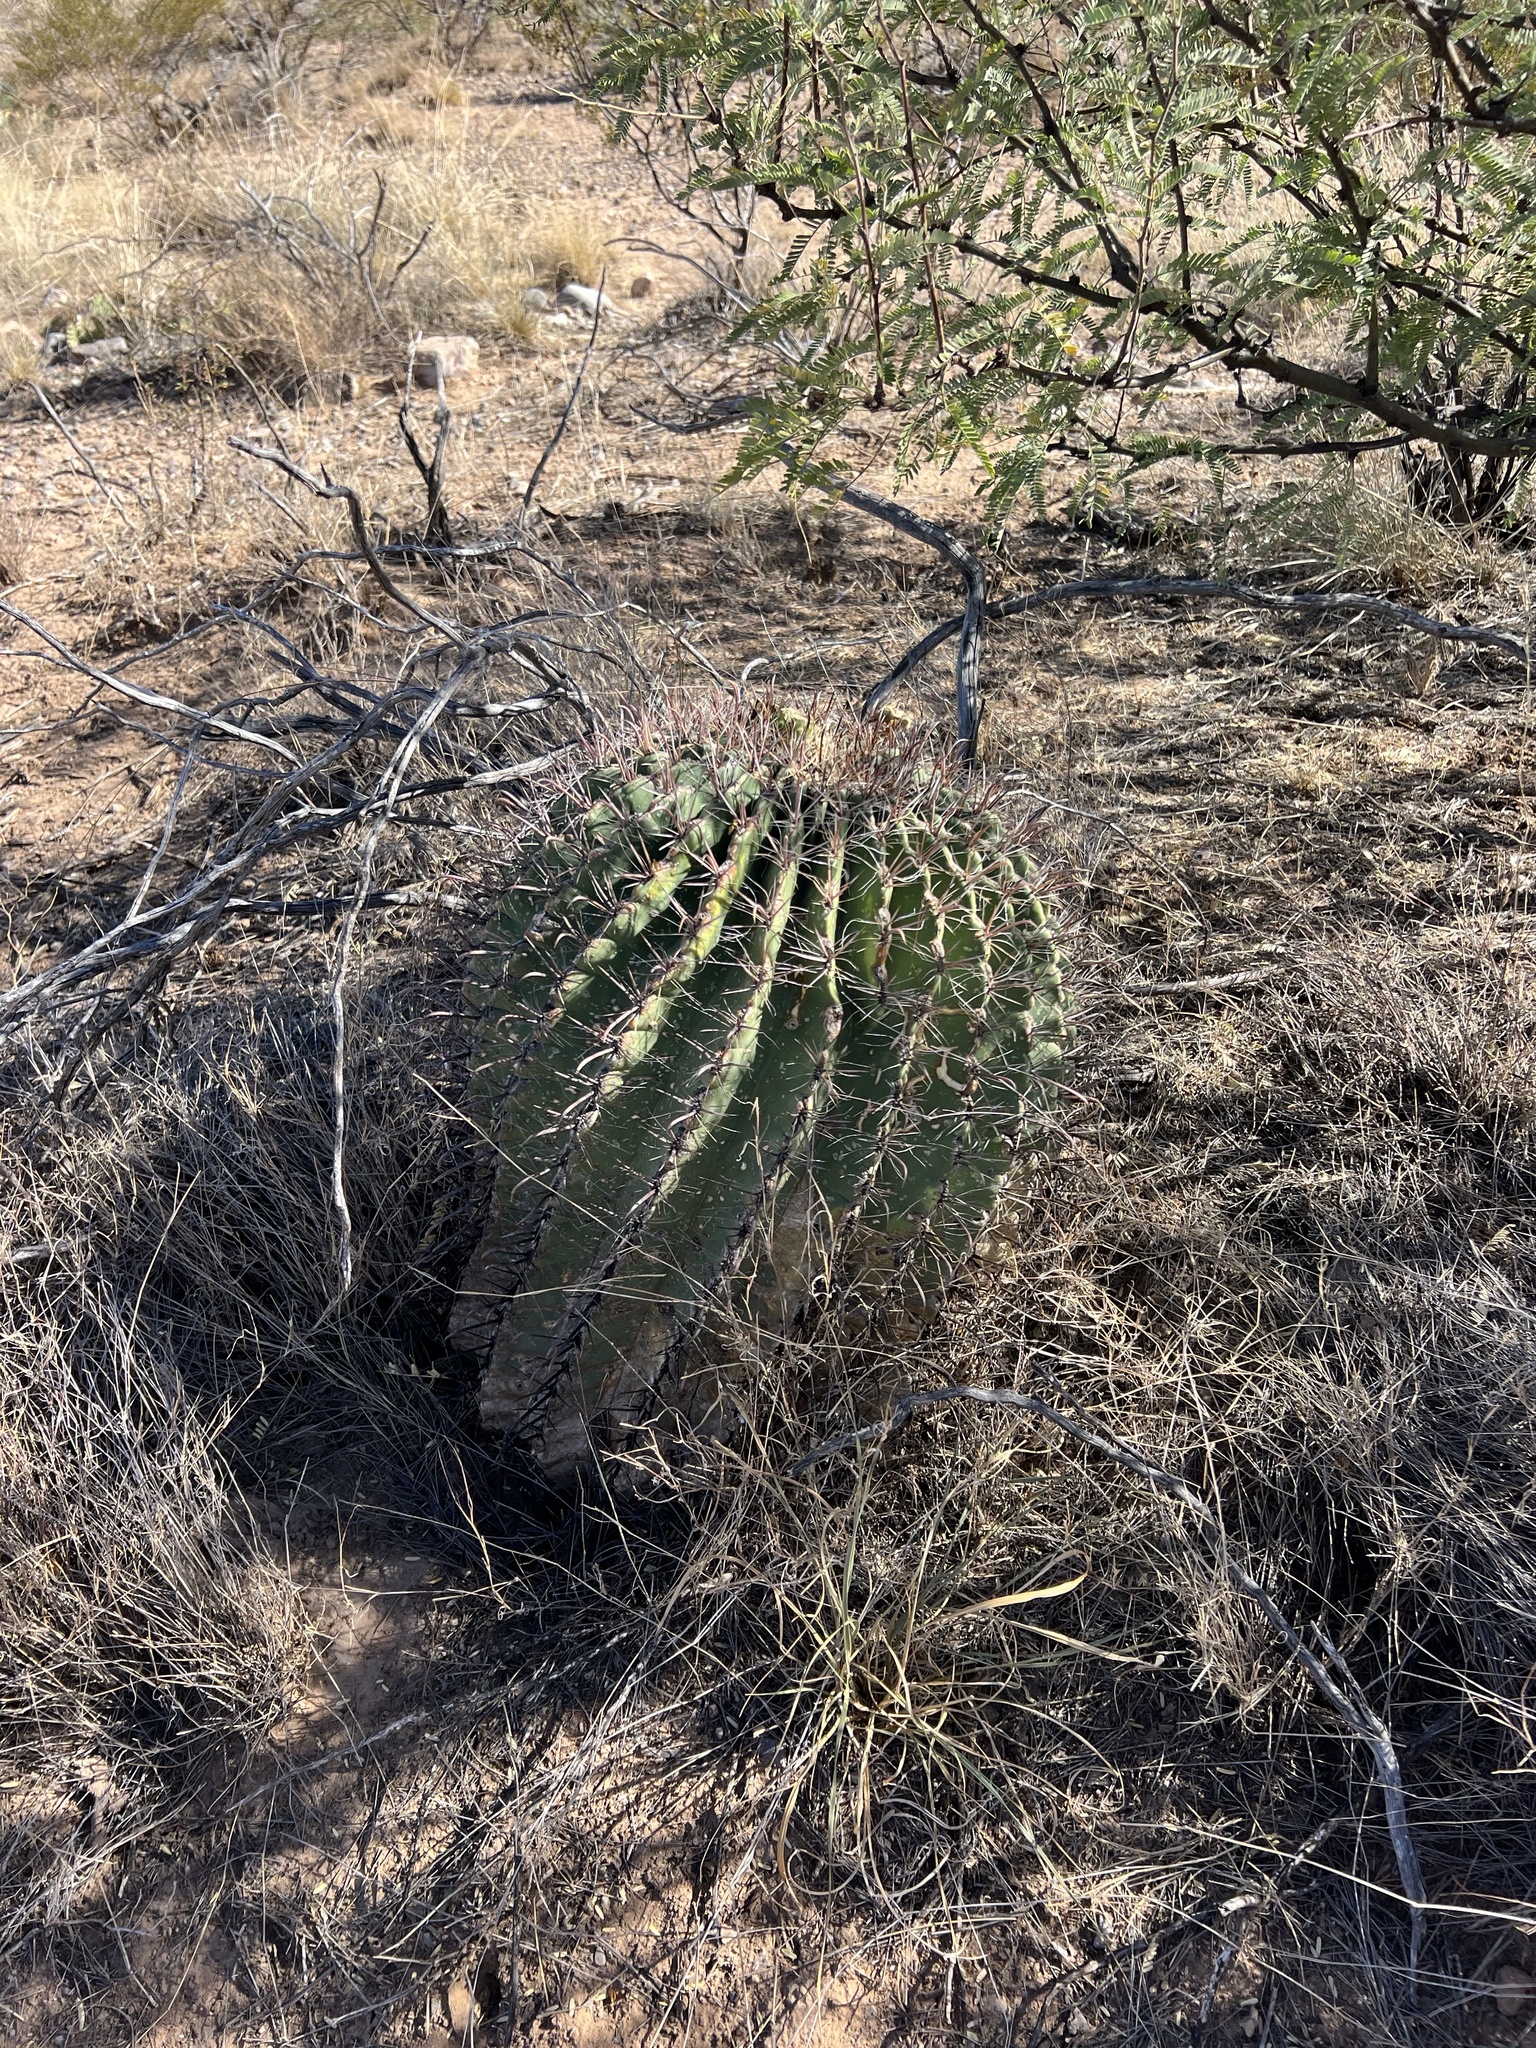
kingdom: Plantae
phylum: Tracheophyta
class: Magnoliopsida
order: Caryophyllales
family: Cactaceae
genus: Ferocactus
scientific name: Ferocactus wislizeni
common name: Candy barrel cactus
